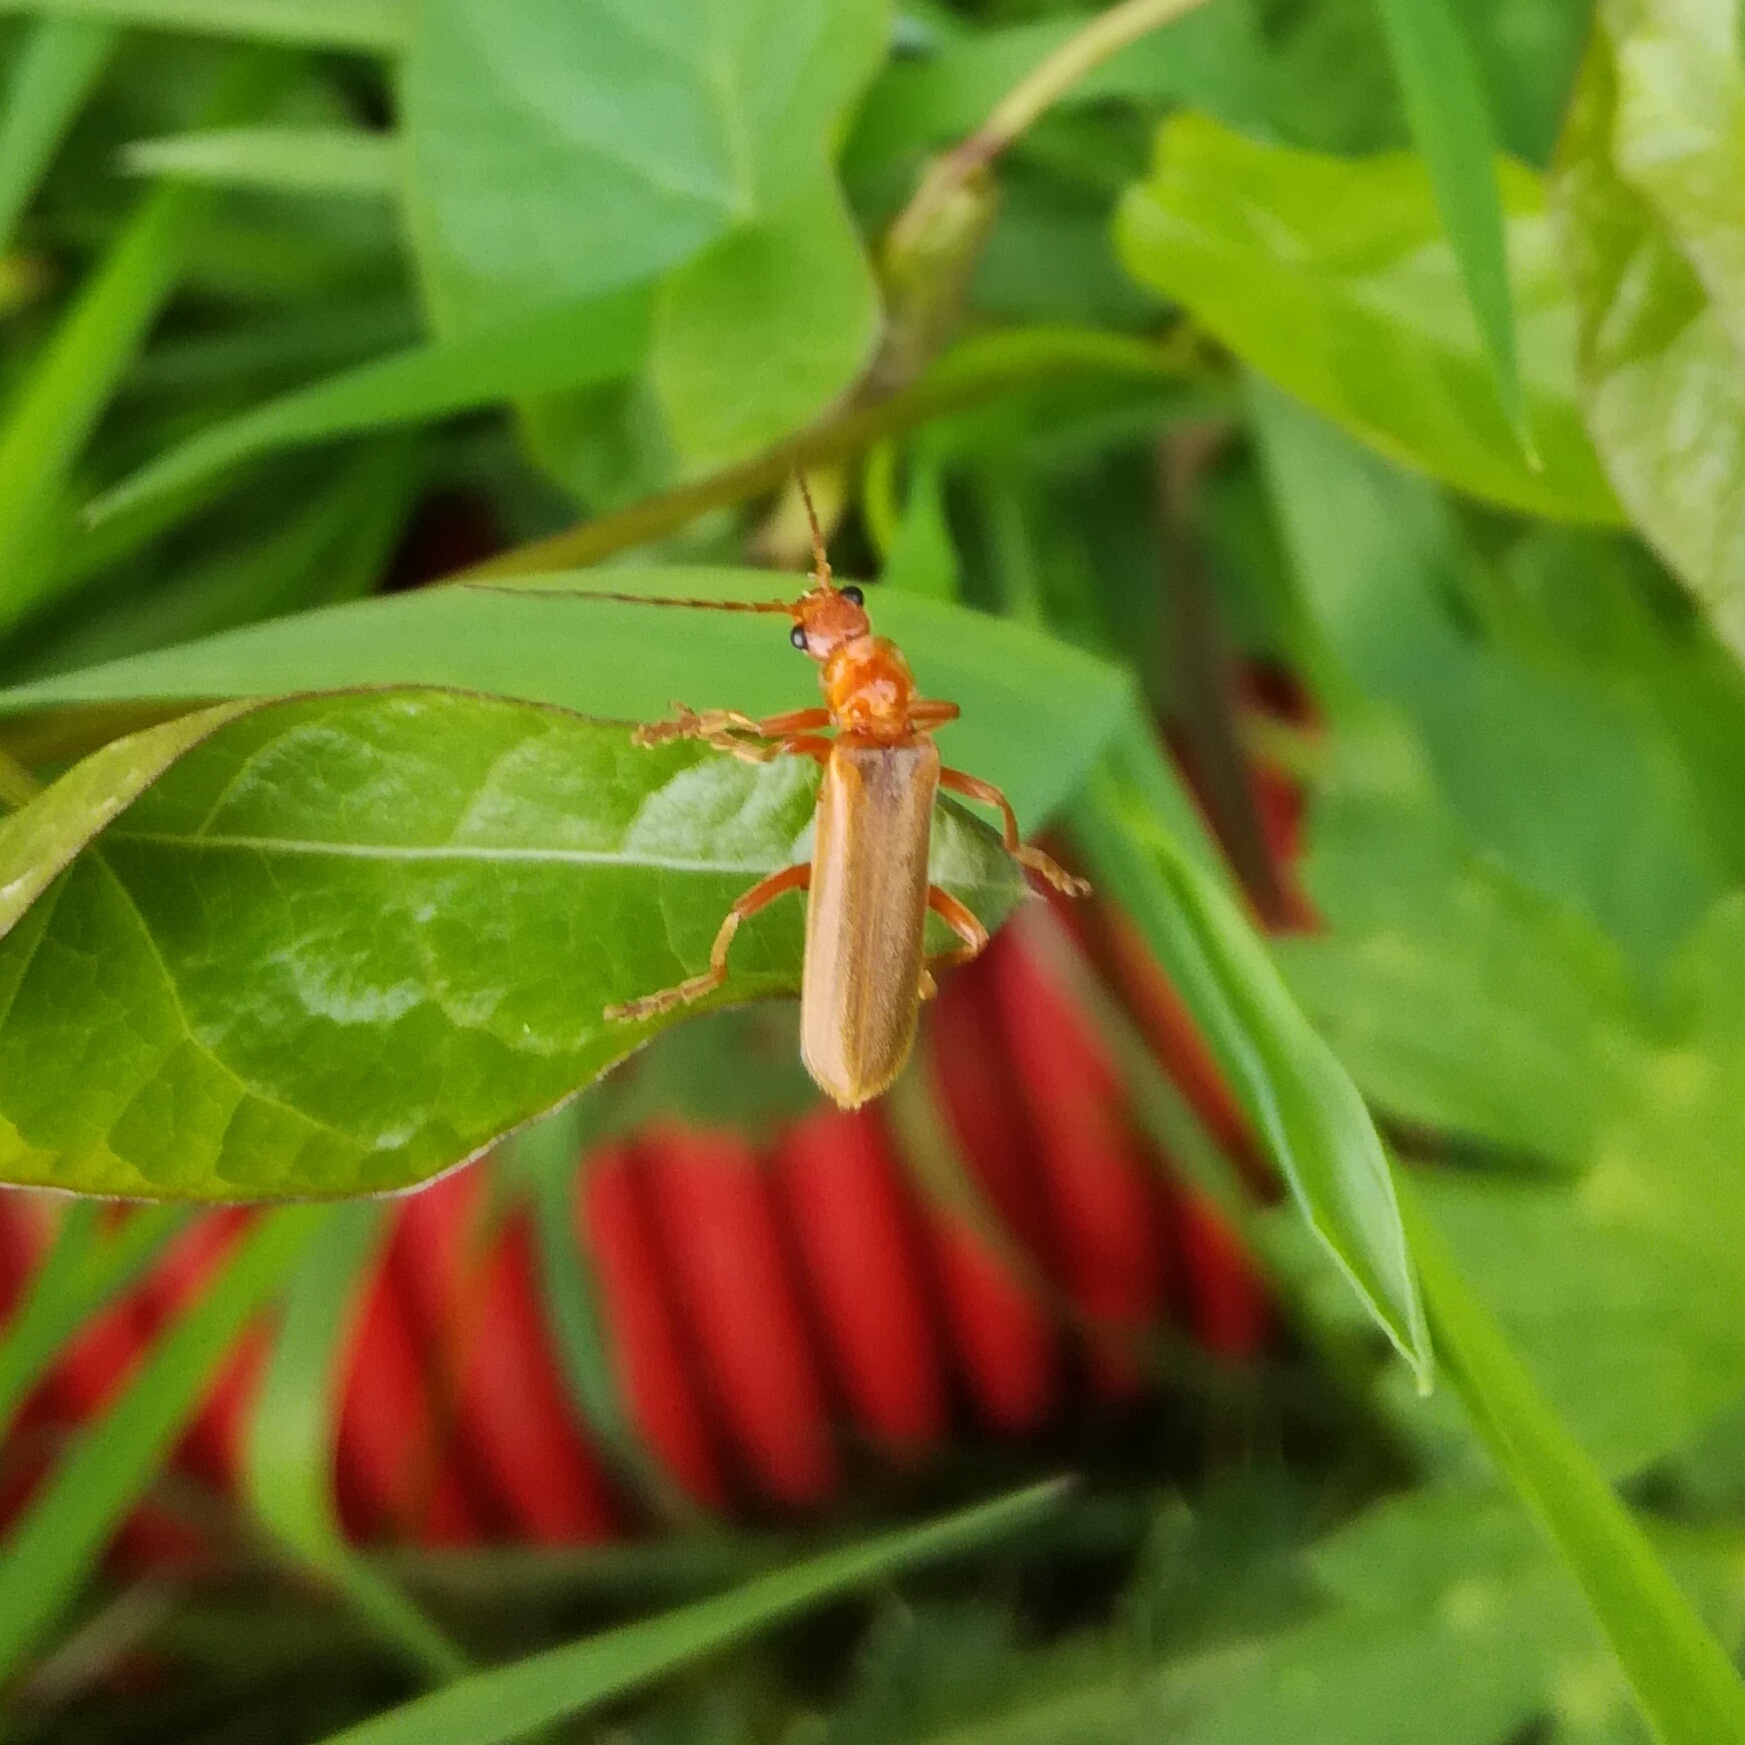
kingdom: Animalia
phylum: Arthropoda
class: Insecta
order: Coleoptera
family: Cantharidae
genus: Cantharis
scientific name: Cantharis rufa
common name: Red-spotted soldier beetle
